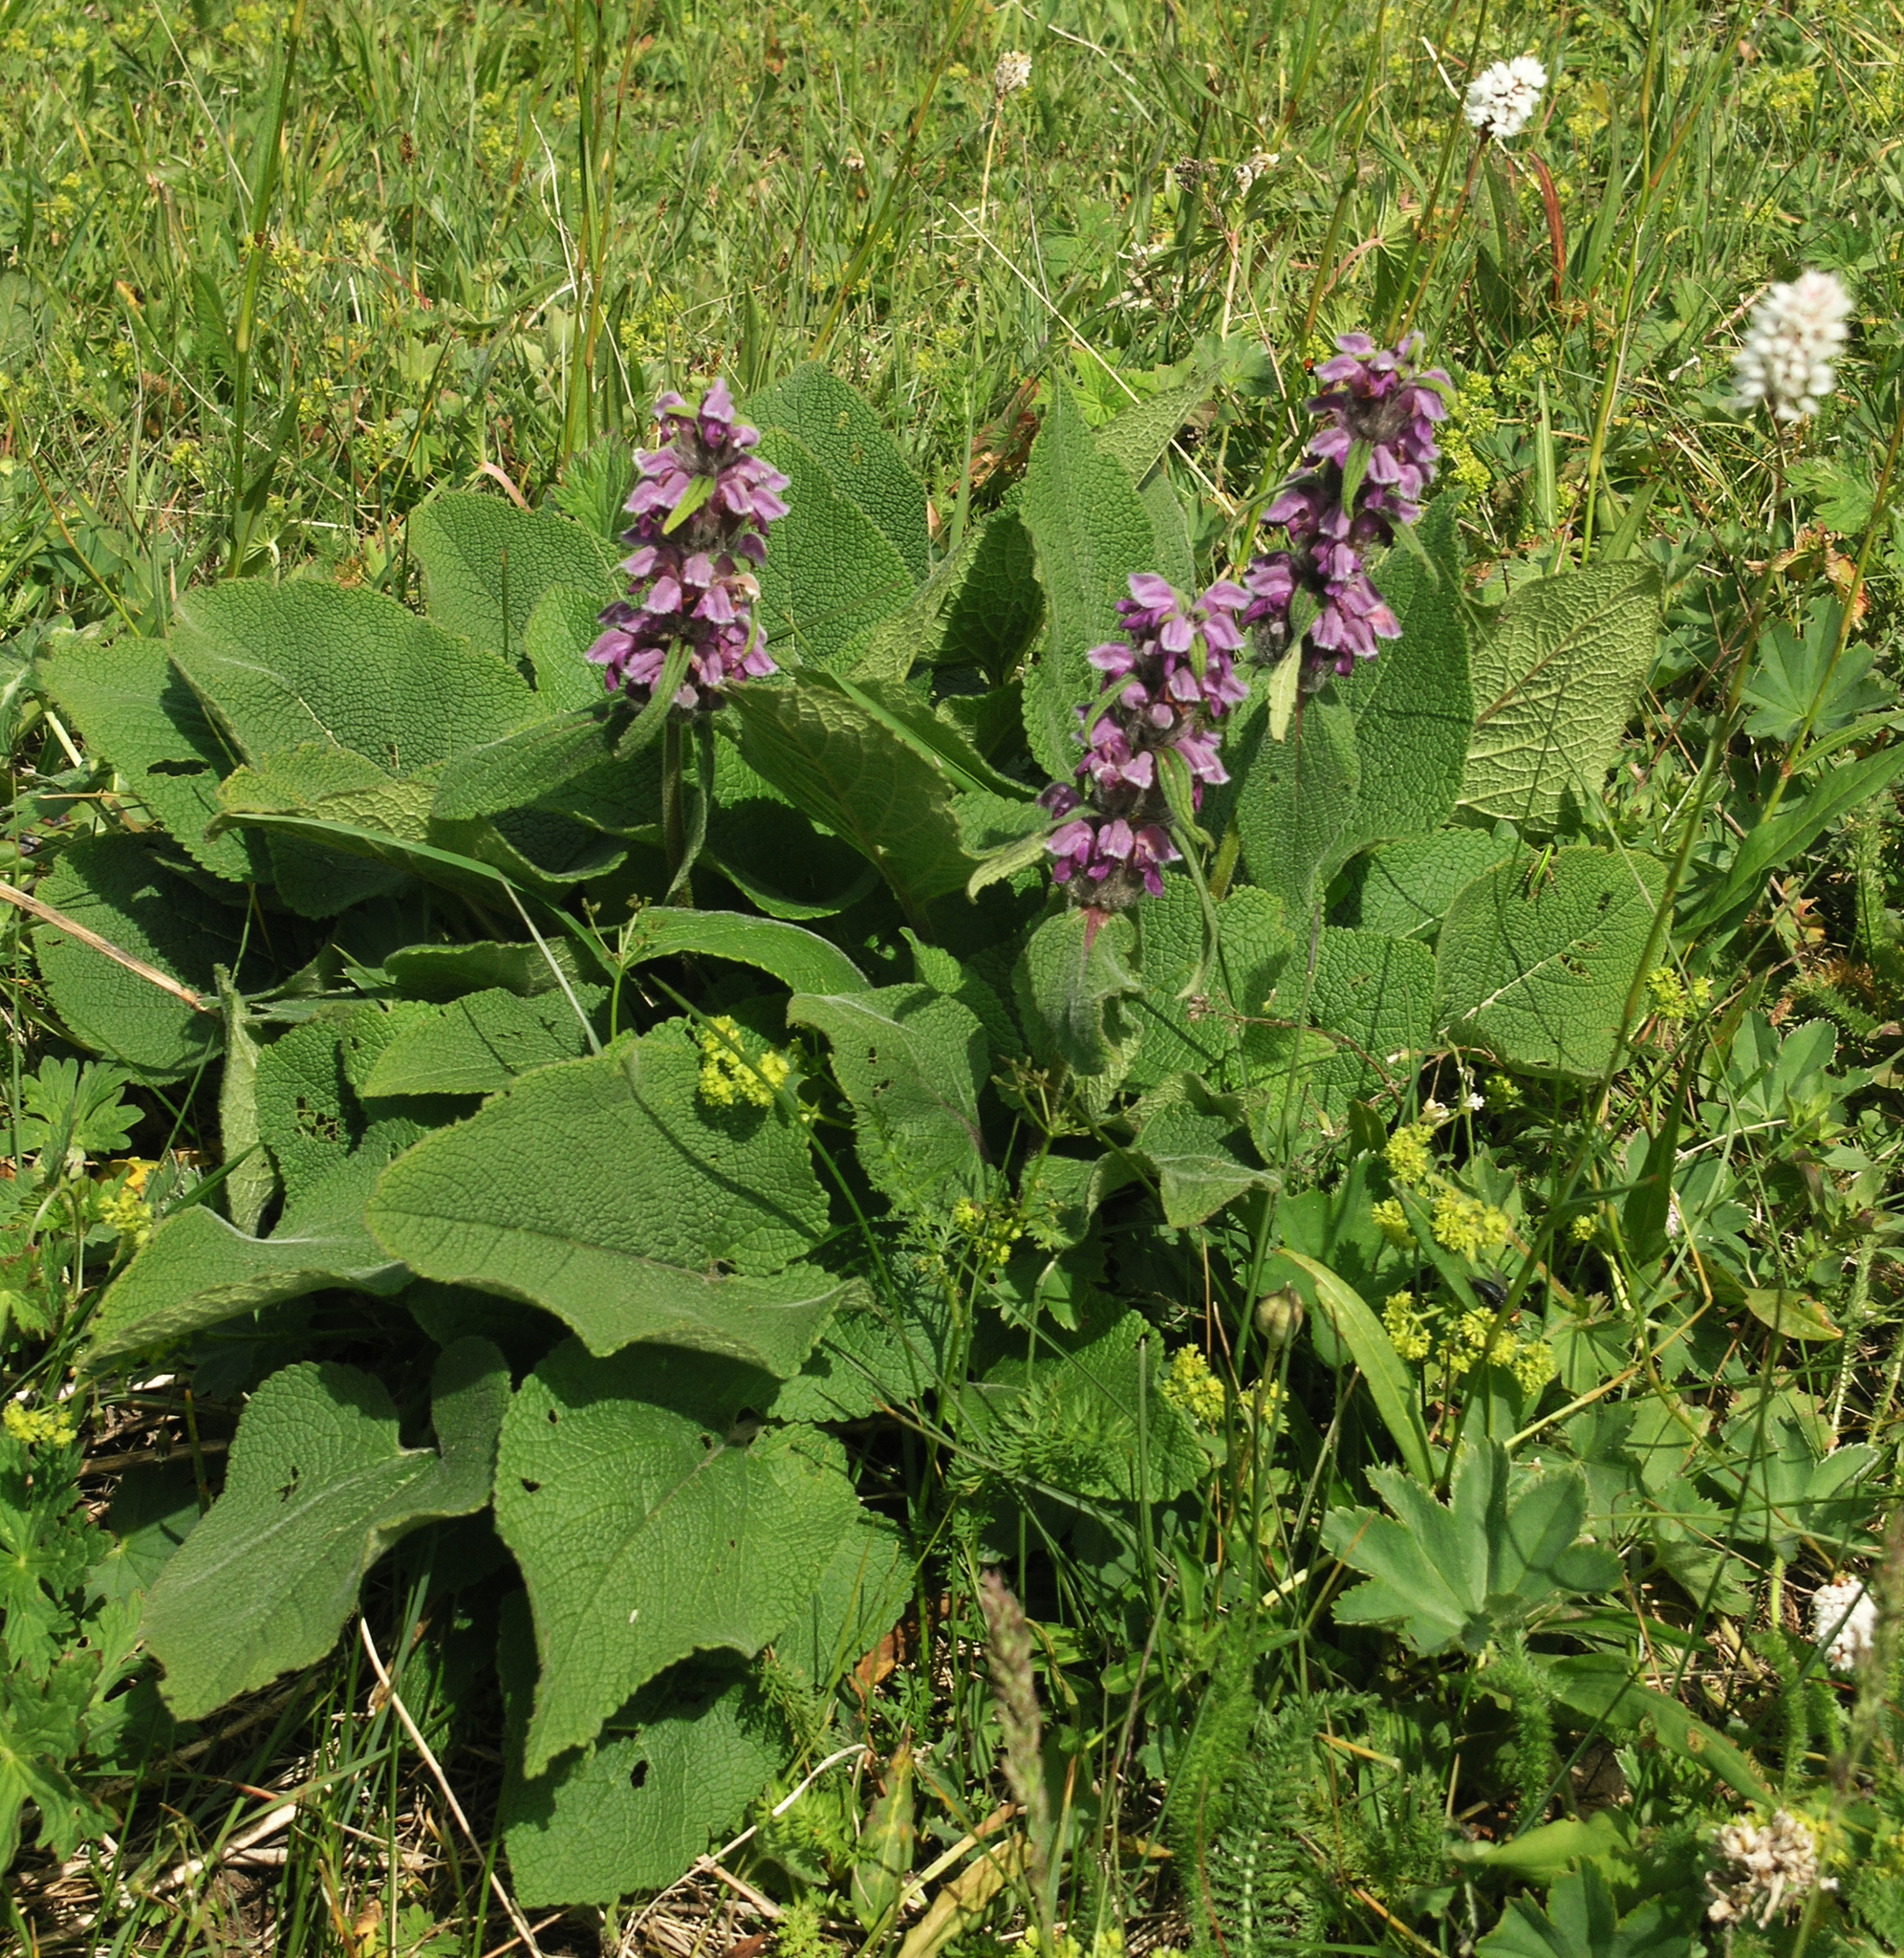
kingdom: Plantae
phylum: Tracheophyta
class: Magnoliopsida
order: Lamiales
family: Lamiaceae
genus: Phlomoides
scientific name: Phlomoides oreophila
